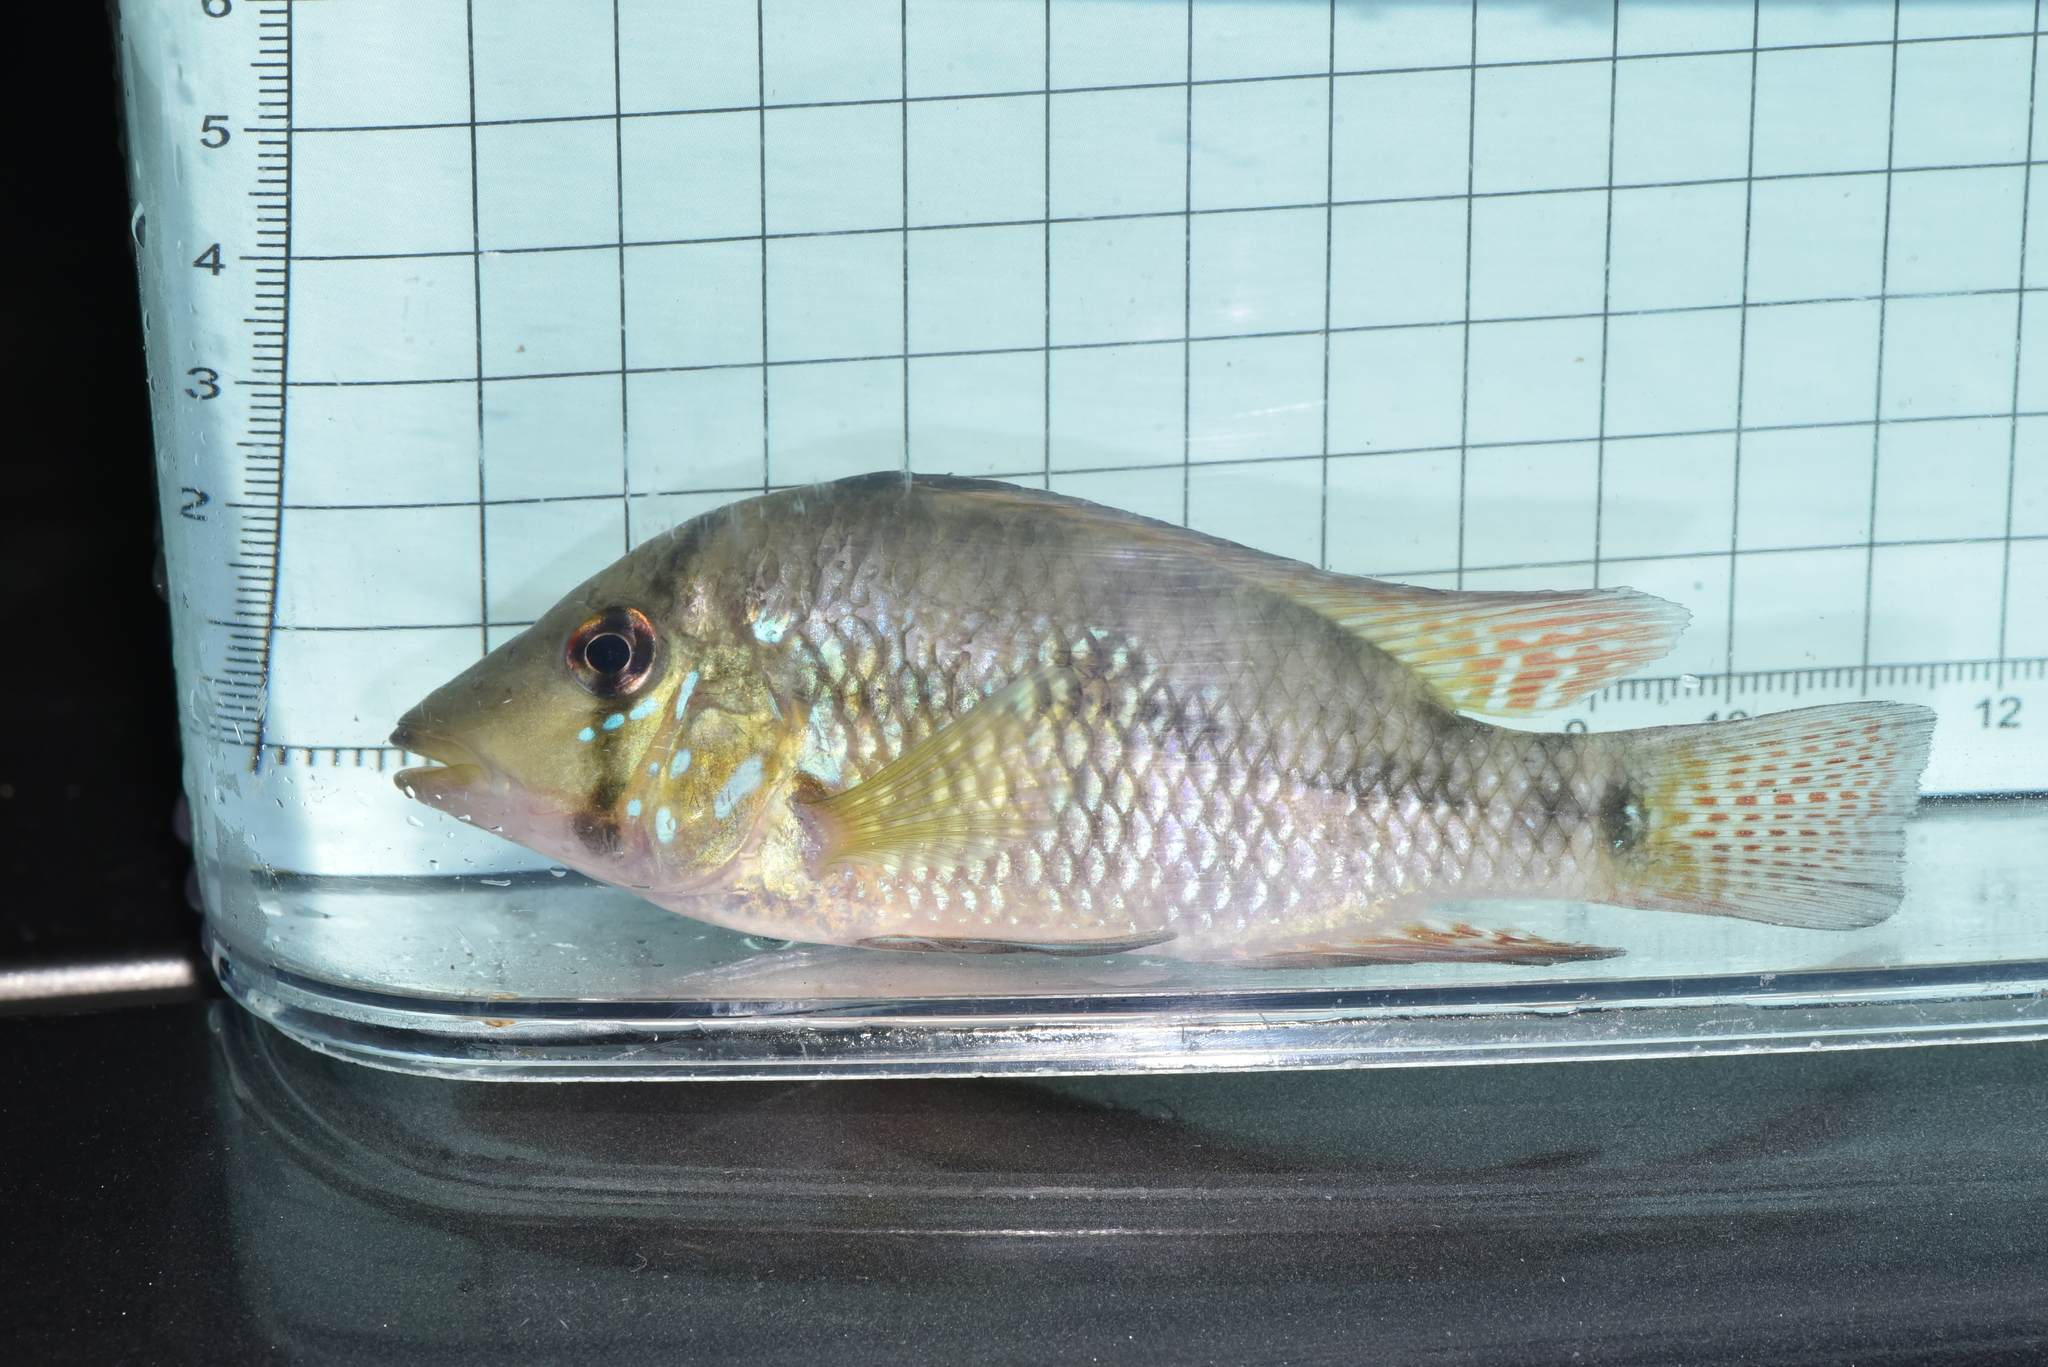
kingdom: Animalia
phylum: Chordata
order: Perciformes
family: Cichlidae
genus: Geophagus
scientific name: Geophagus brasiliensis
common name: Braziliensis
